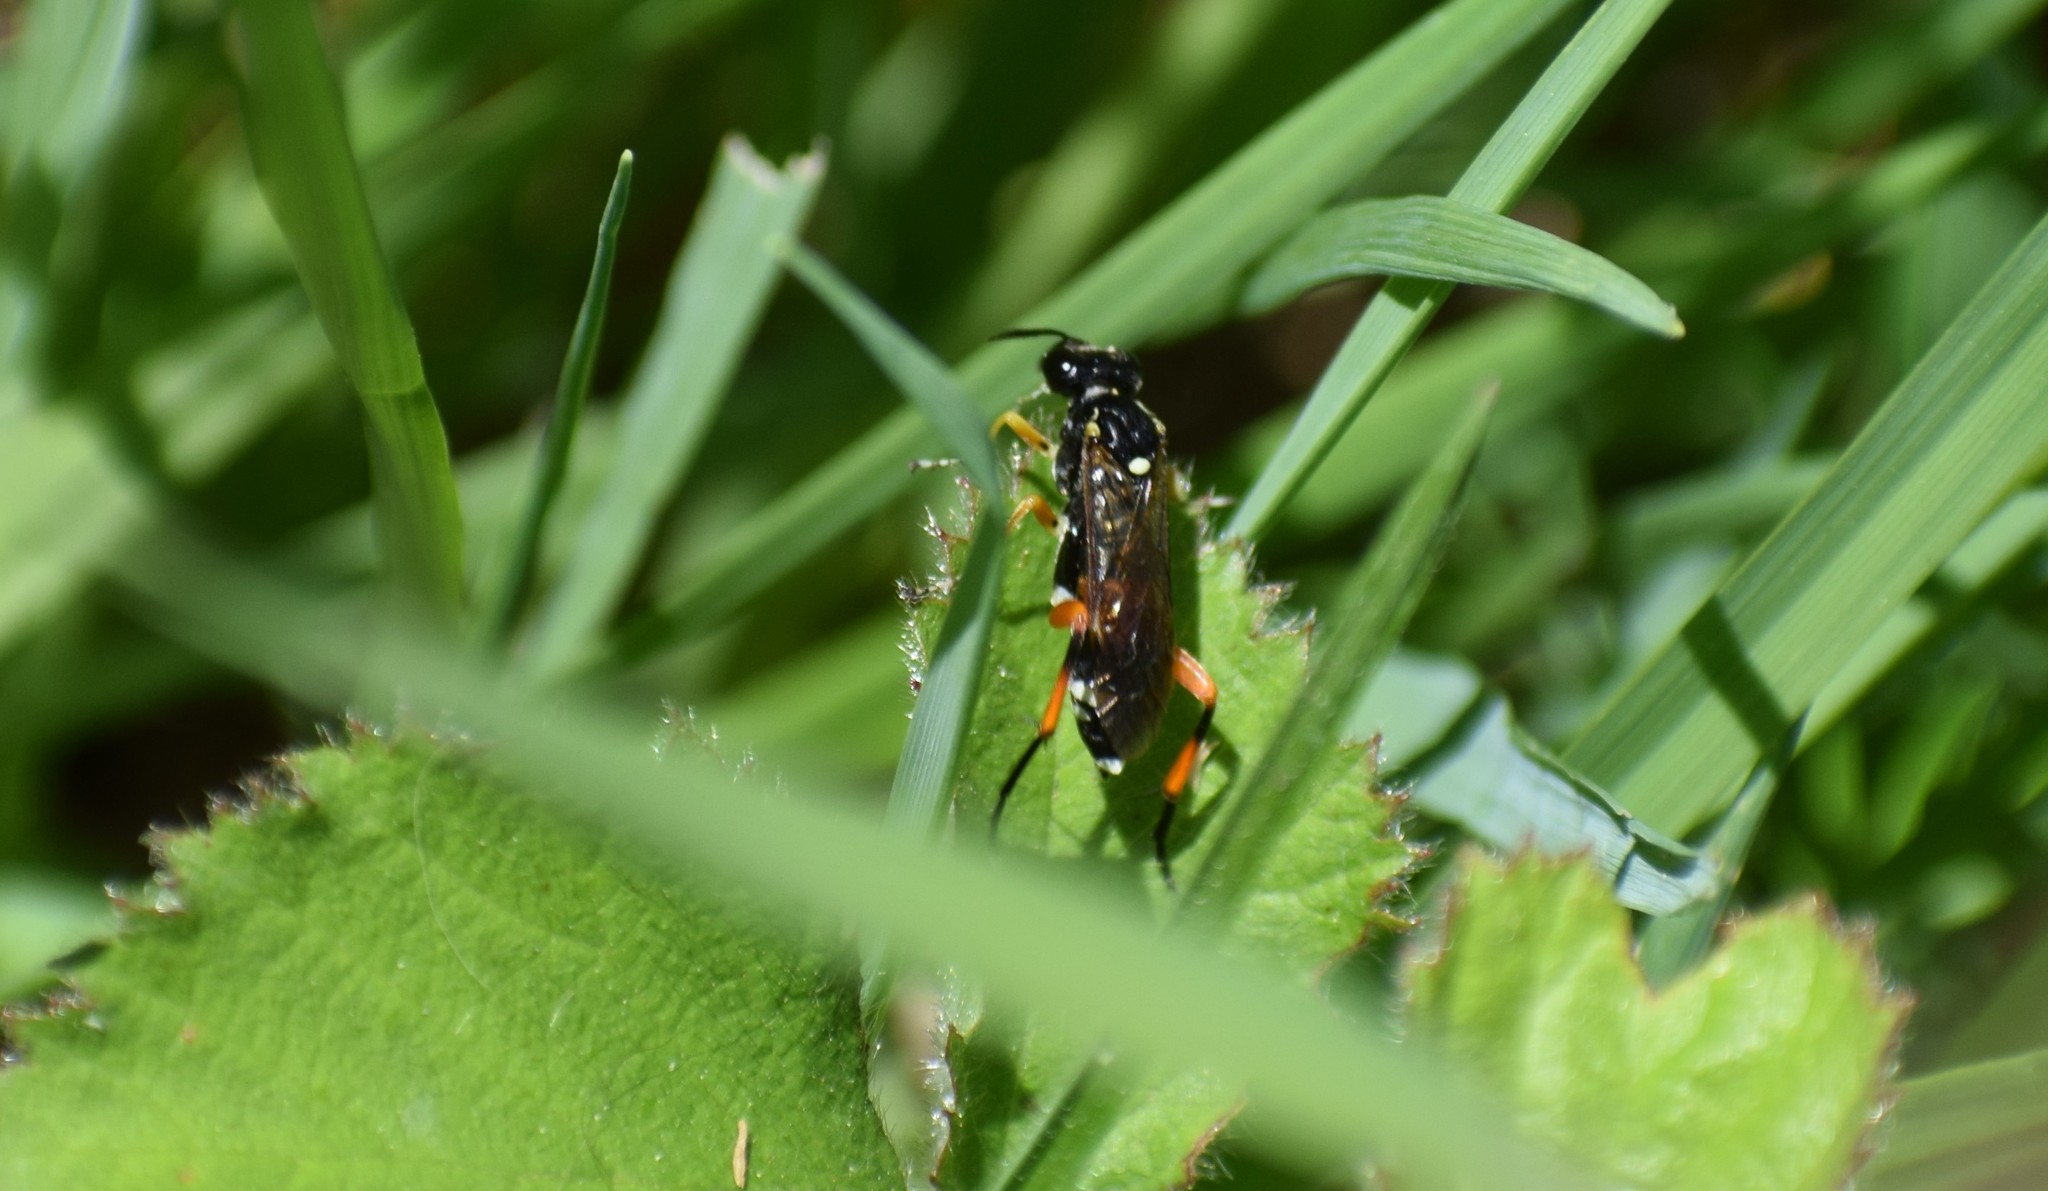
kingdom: Animalia
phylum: Arthropoda
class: Insecta
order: Hymenoptera
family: Tenthredinidae
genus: Macrophya
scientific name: Macrophya rufipes
